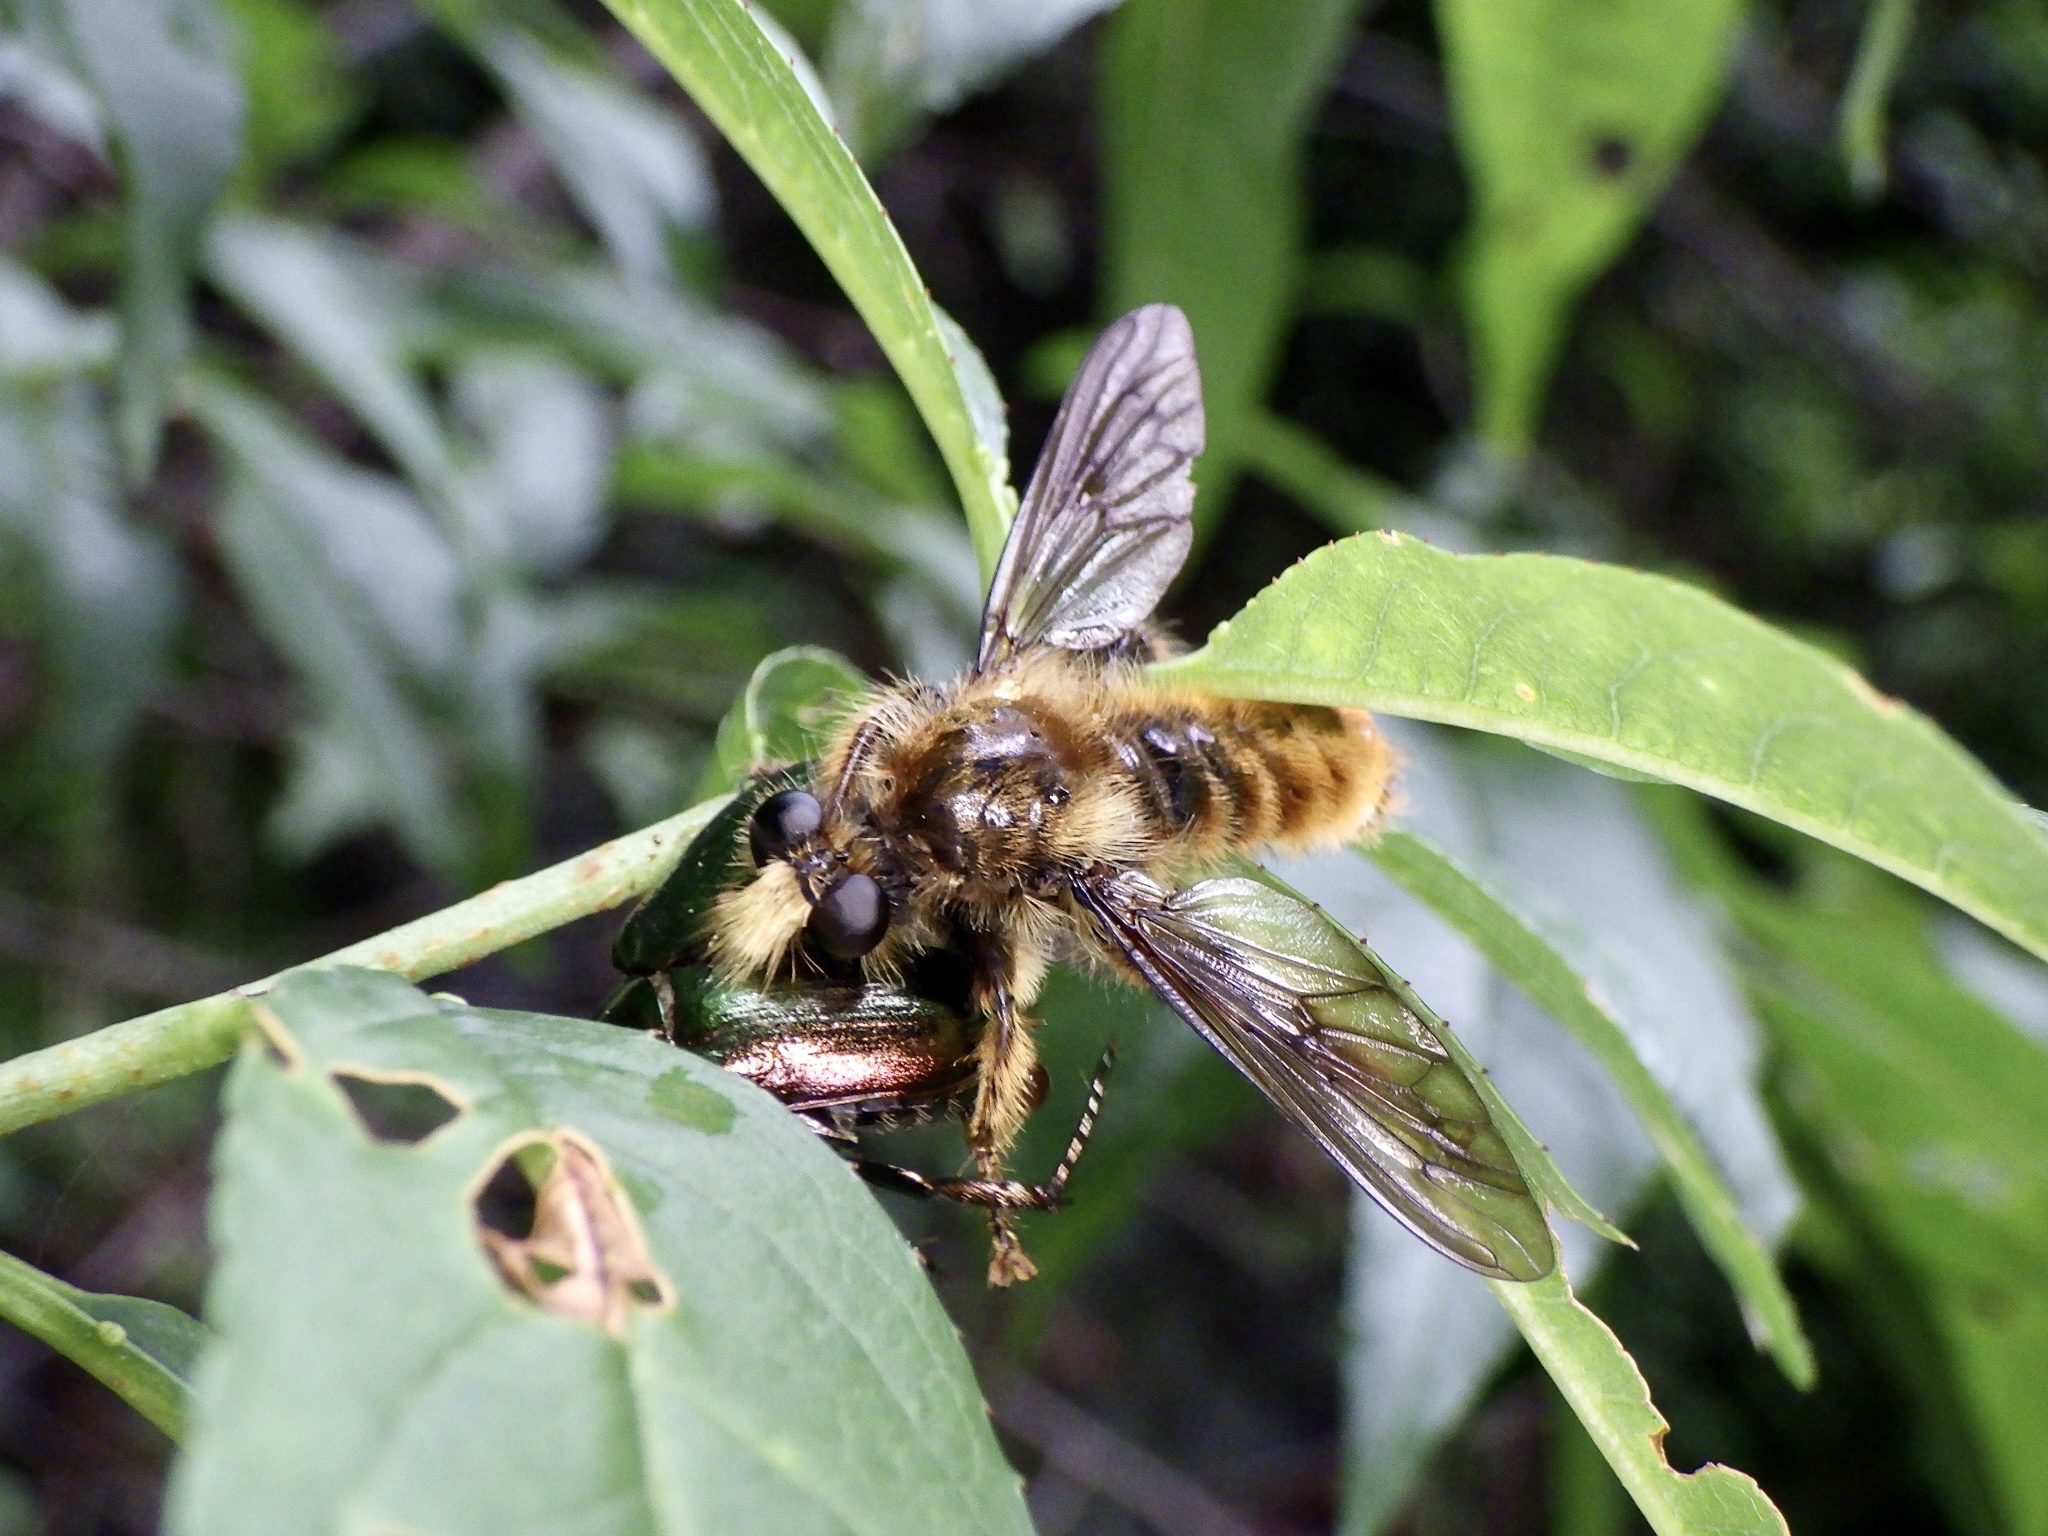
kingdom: Animalia
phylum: Arthropoda
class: Insecta
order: Diptera
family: Asilidae
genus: Laphria
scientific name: Laphria rufa
